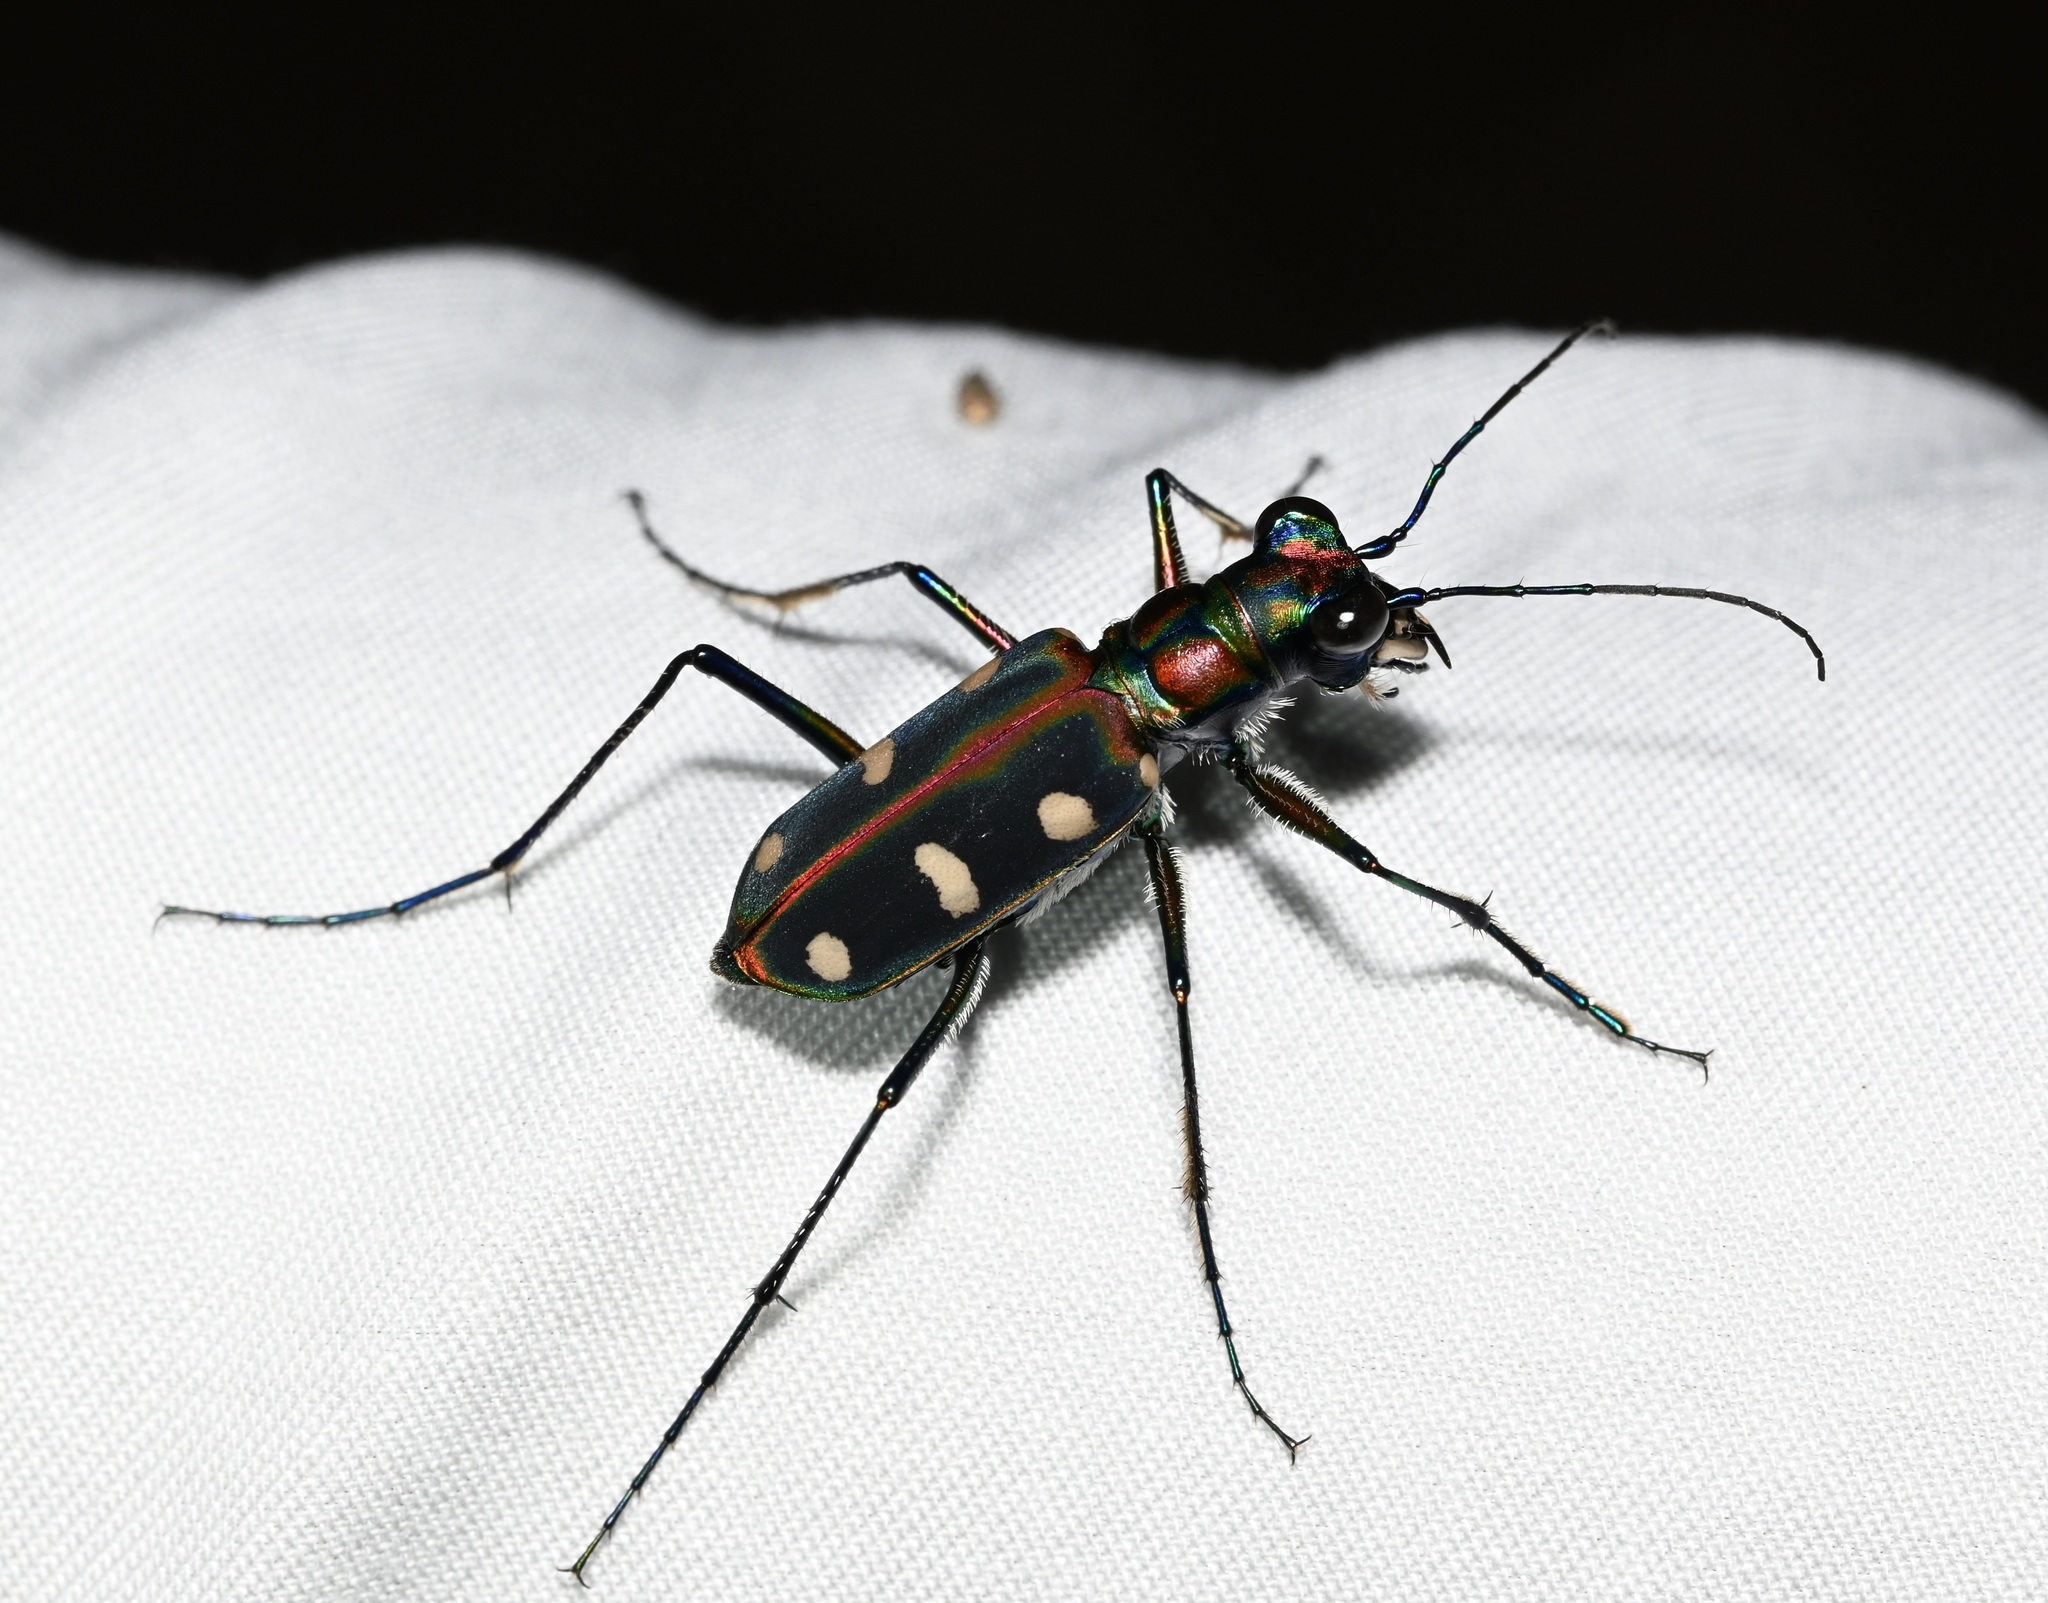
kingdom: Animalia
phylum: Arthropoda
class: Insecta
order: Coleoptera
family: Carabidae
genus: Cicindela
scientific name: Cicindela juxtata
